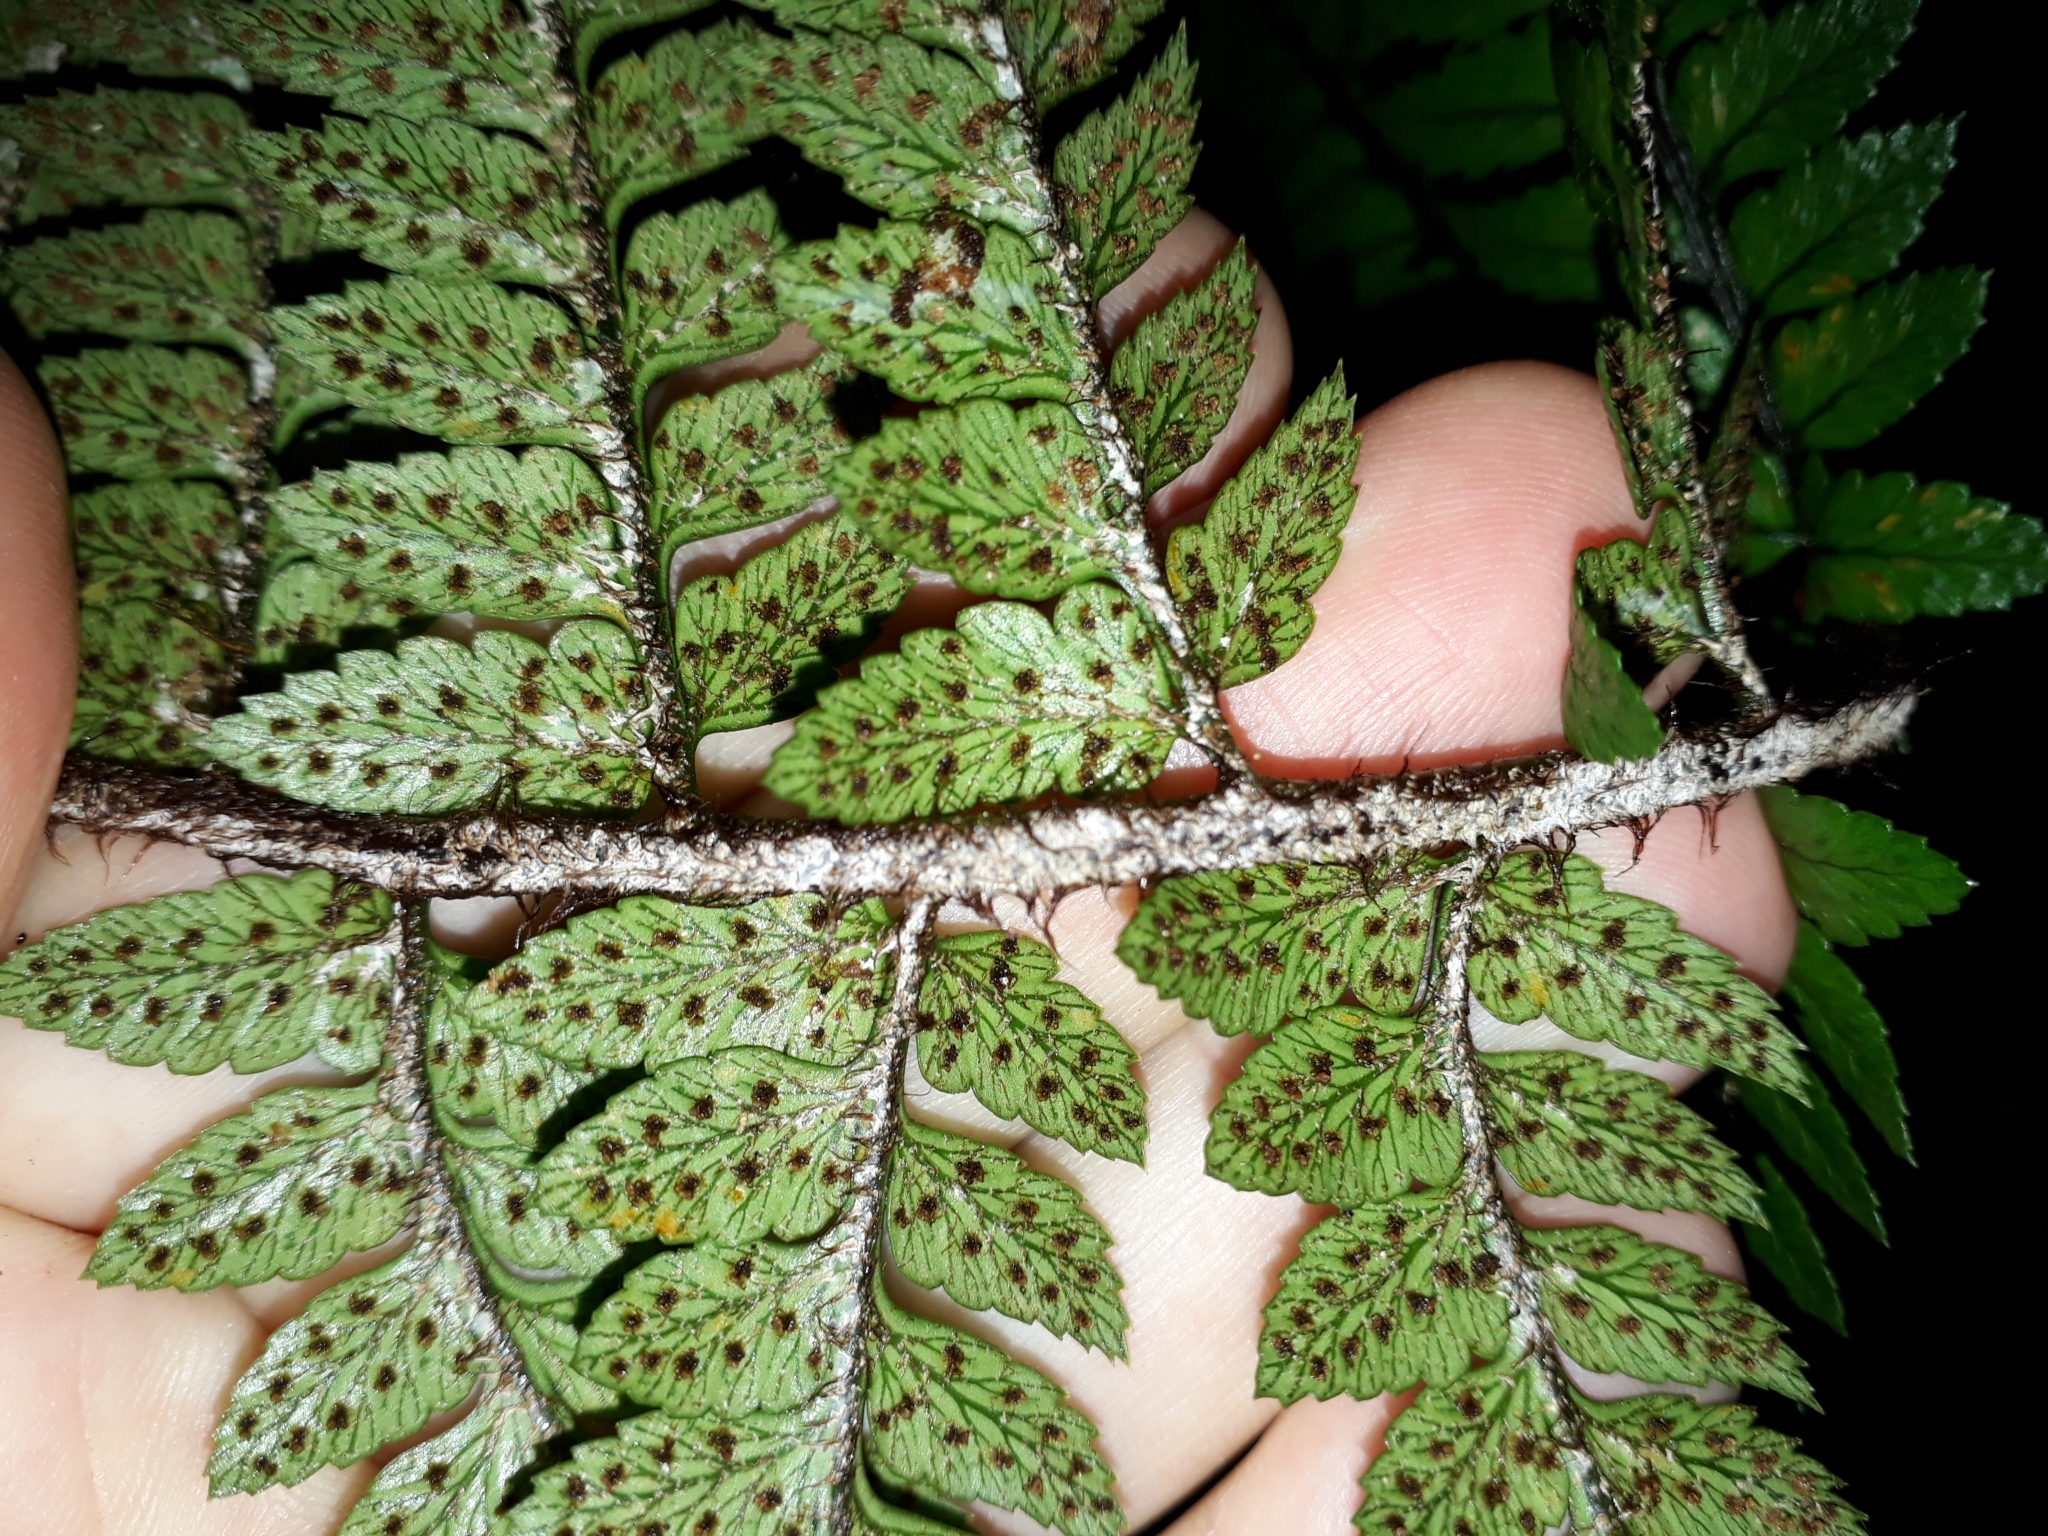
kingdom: Plantae
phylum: Tracheophyta
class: Polypodiopsida
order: Polypodiales
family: Dryopteridaceae
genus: Polystichum
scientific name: Polystichum wawranum
